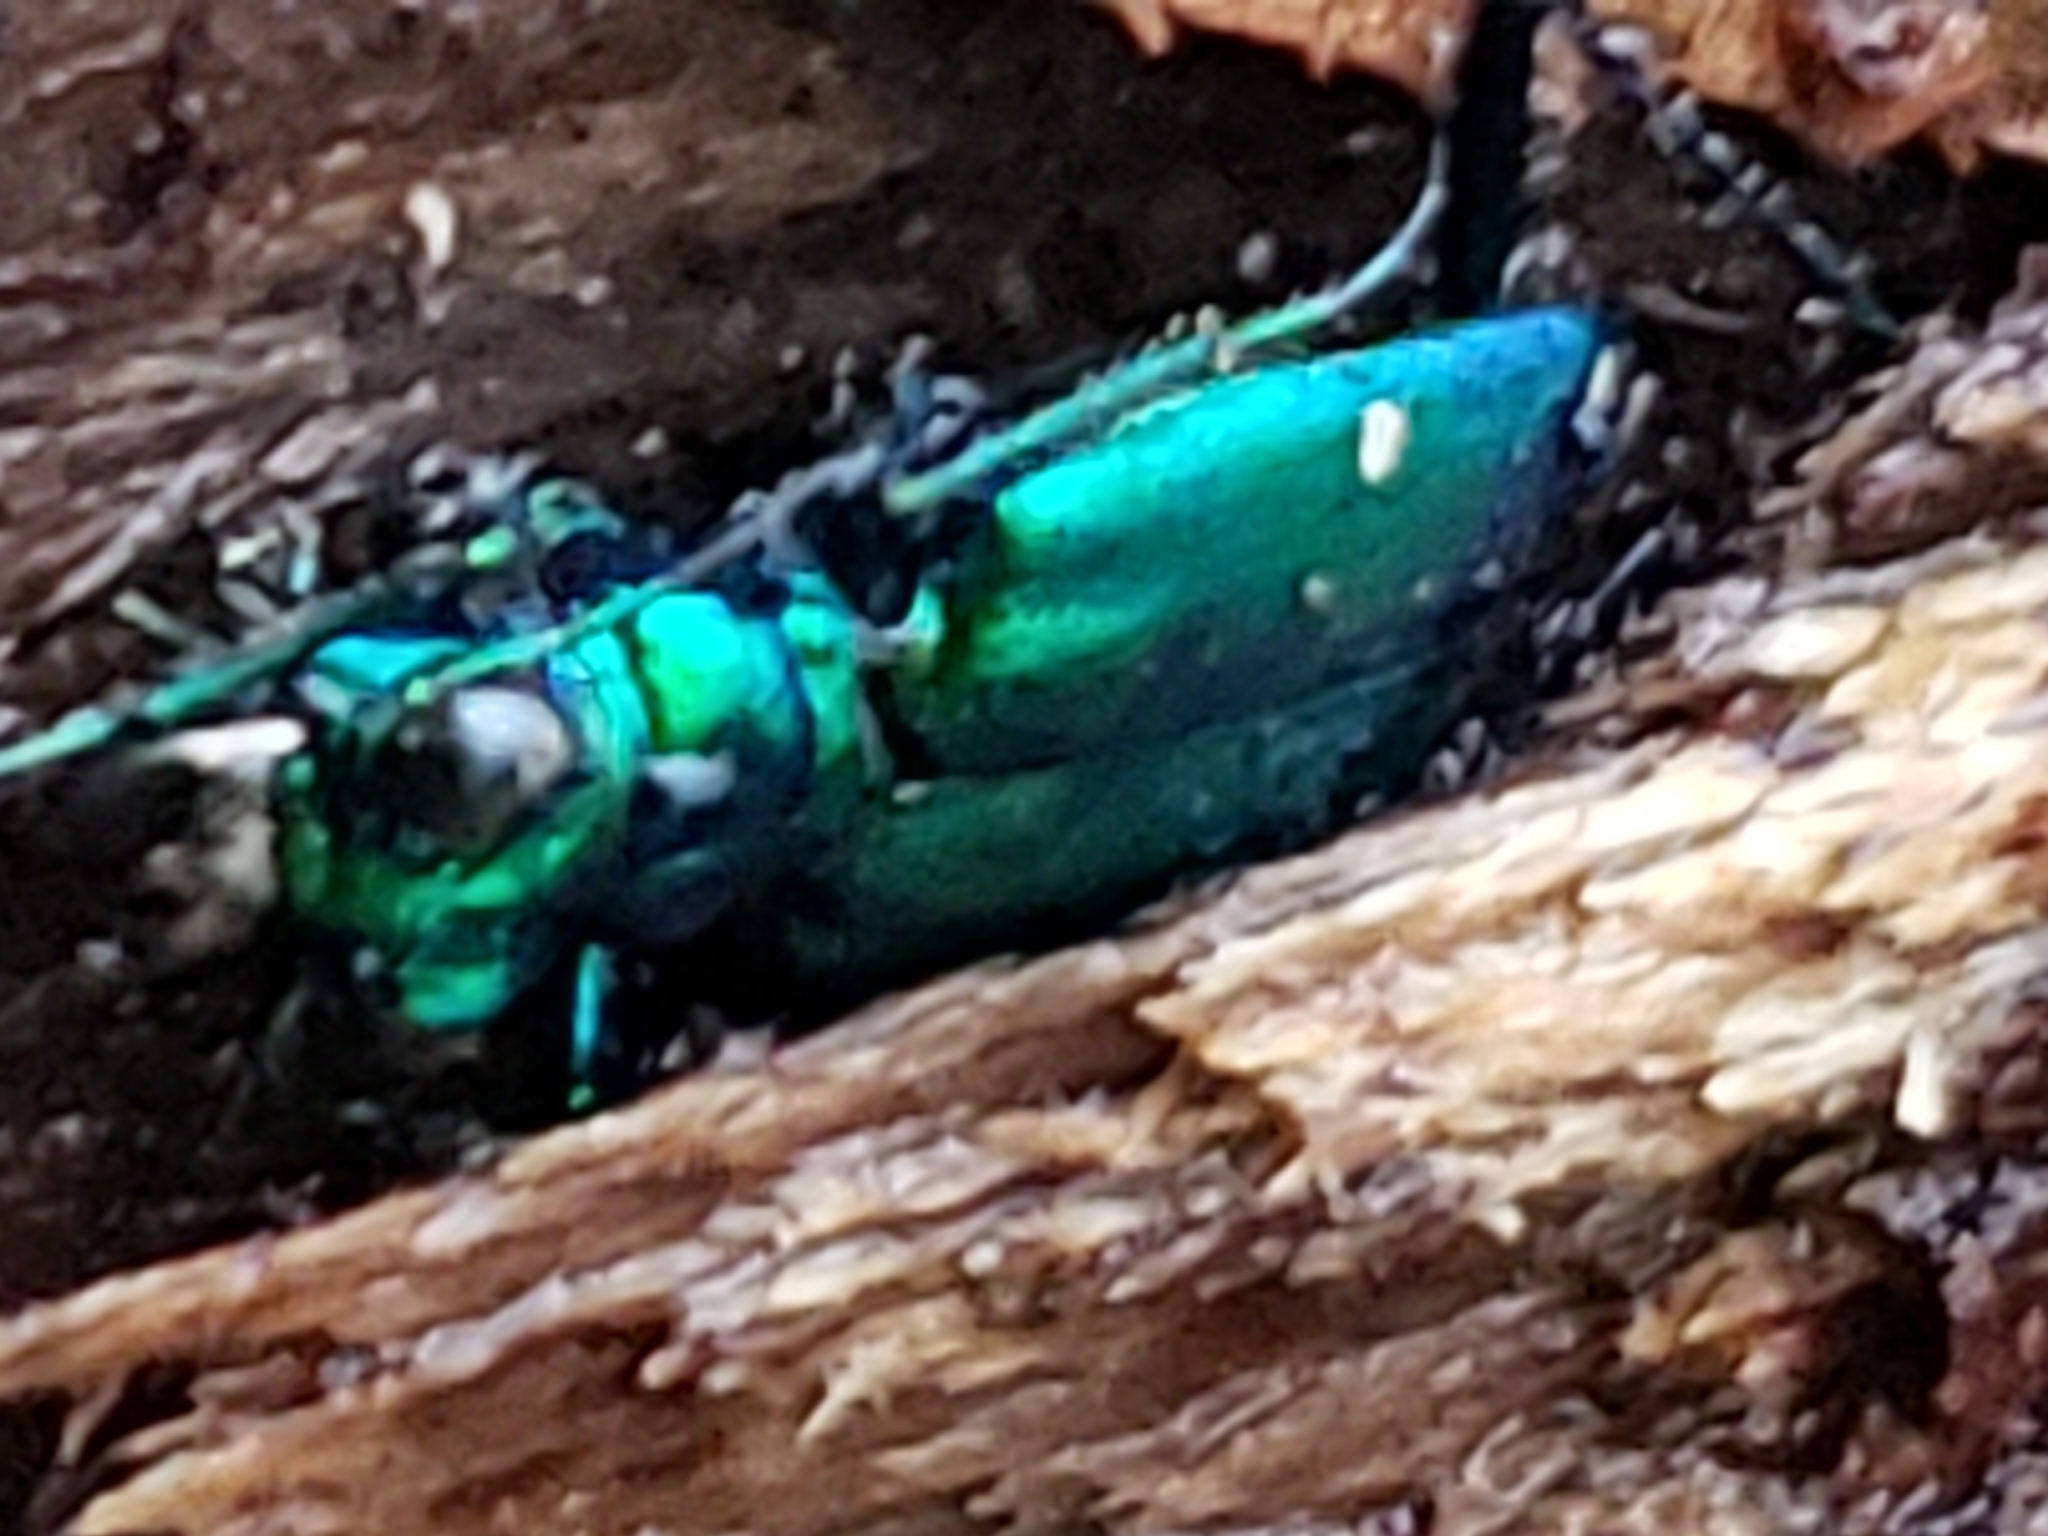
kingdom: Animalia
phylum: Arthropoda
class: Insecta
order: Coleoptera
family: Carabidae
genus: Cicindela
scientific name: Cicindela sexguttata
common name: Six-spotted tiger beetle
